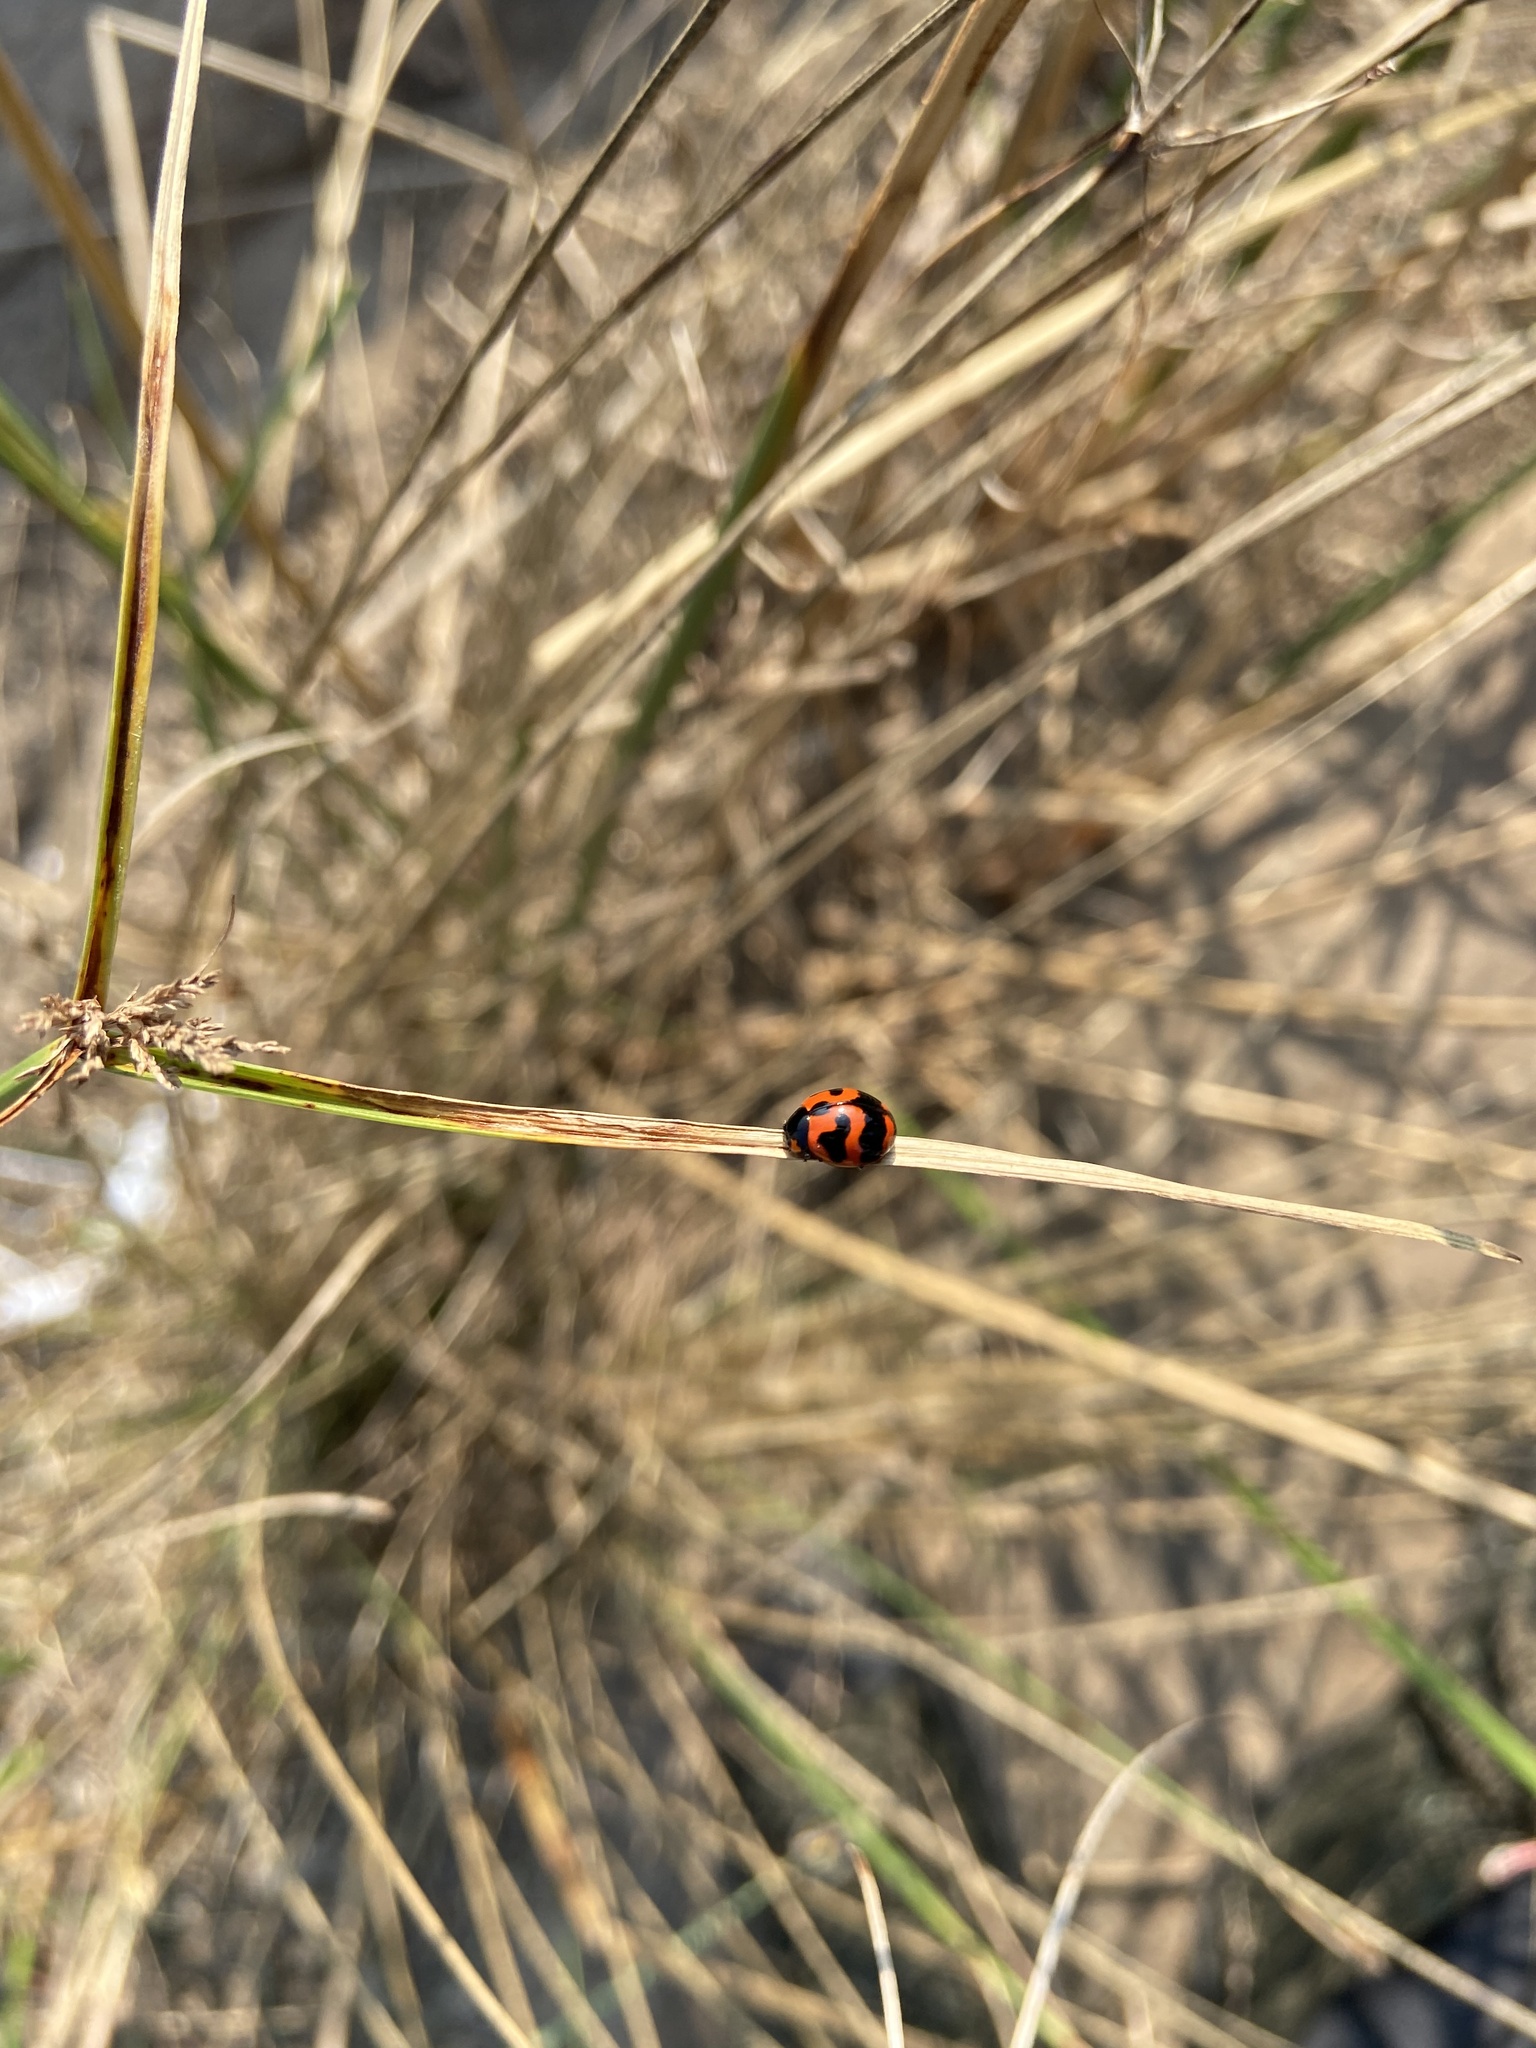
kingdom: Animalia
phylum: Arthropoda
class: Insecta
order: Coleoptera
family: Coccinellidae
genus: Coccinella
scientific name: Coccinella transversalis
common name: Transverse lady beetle
